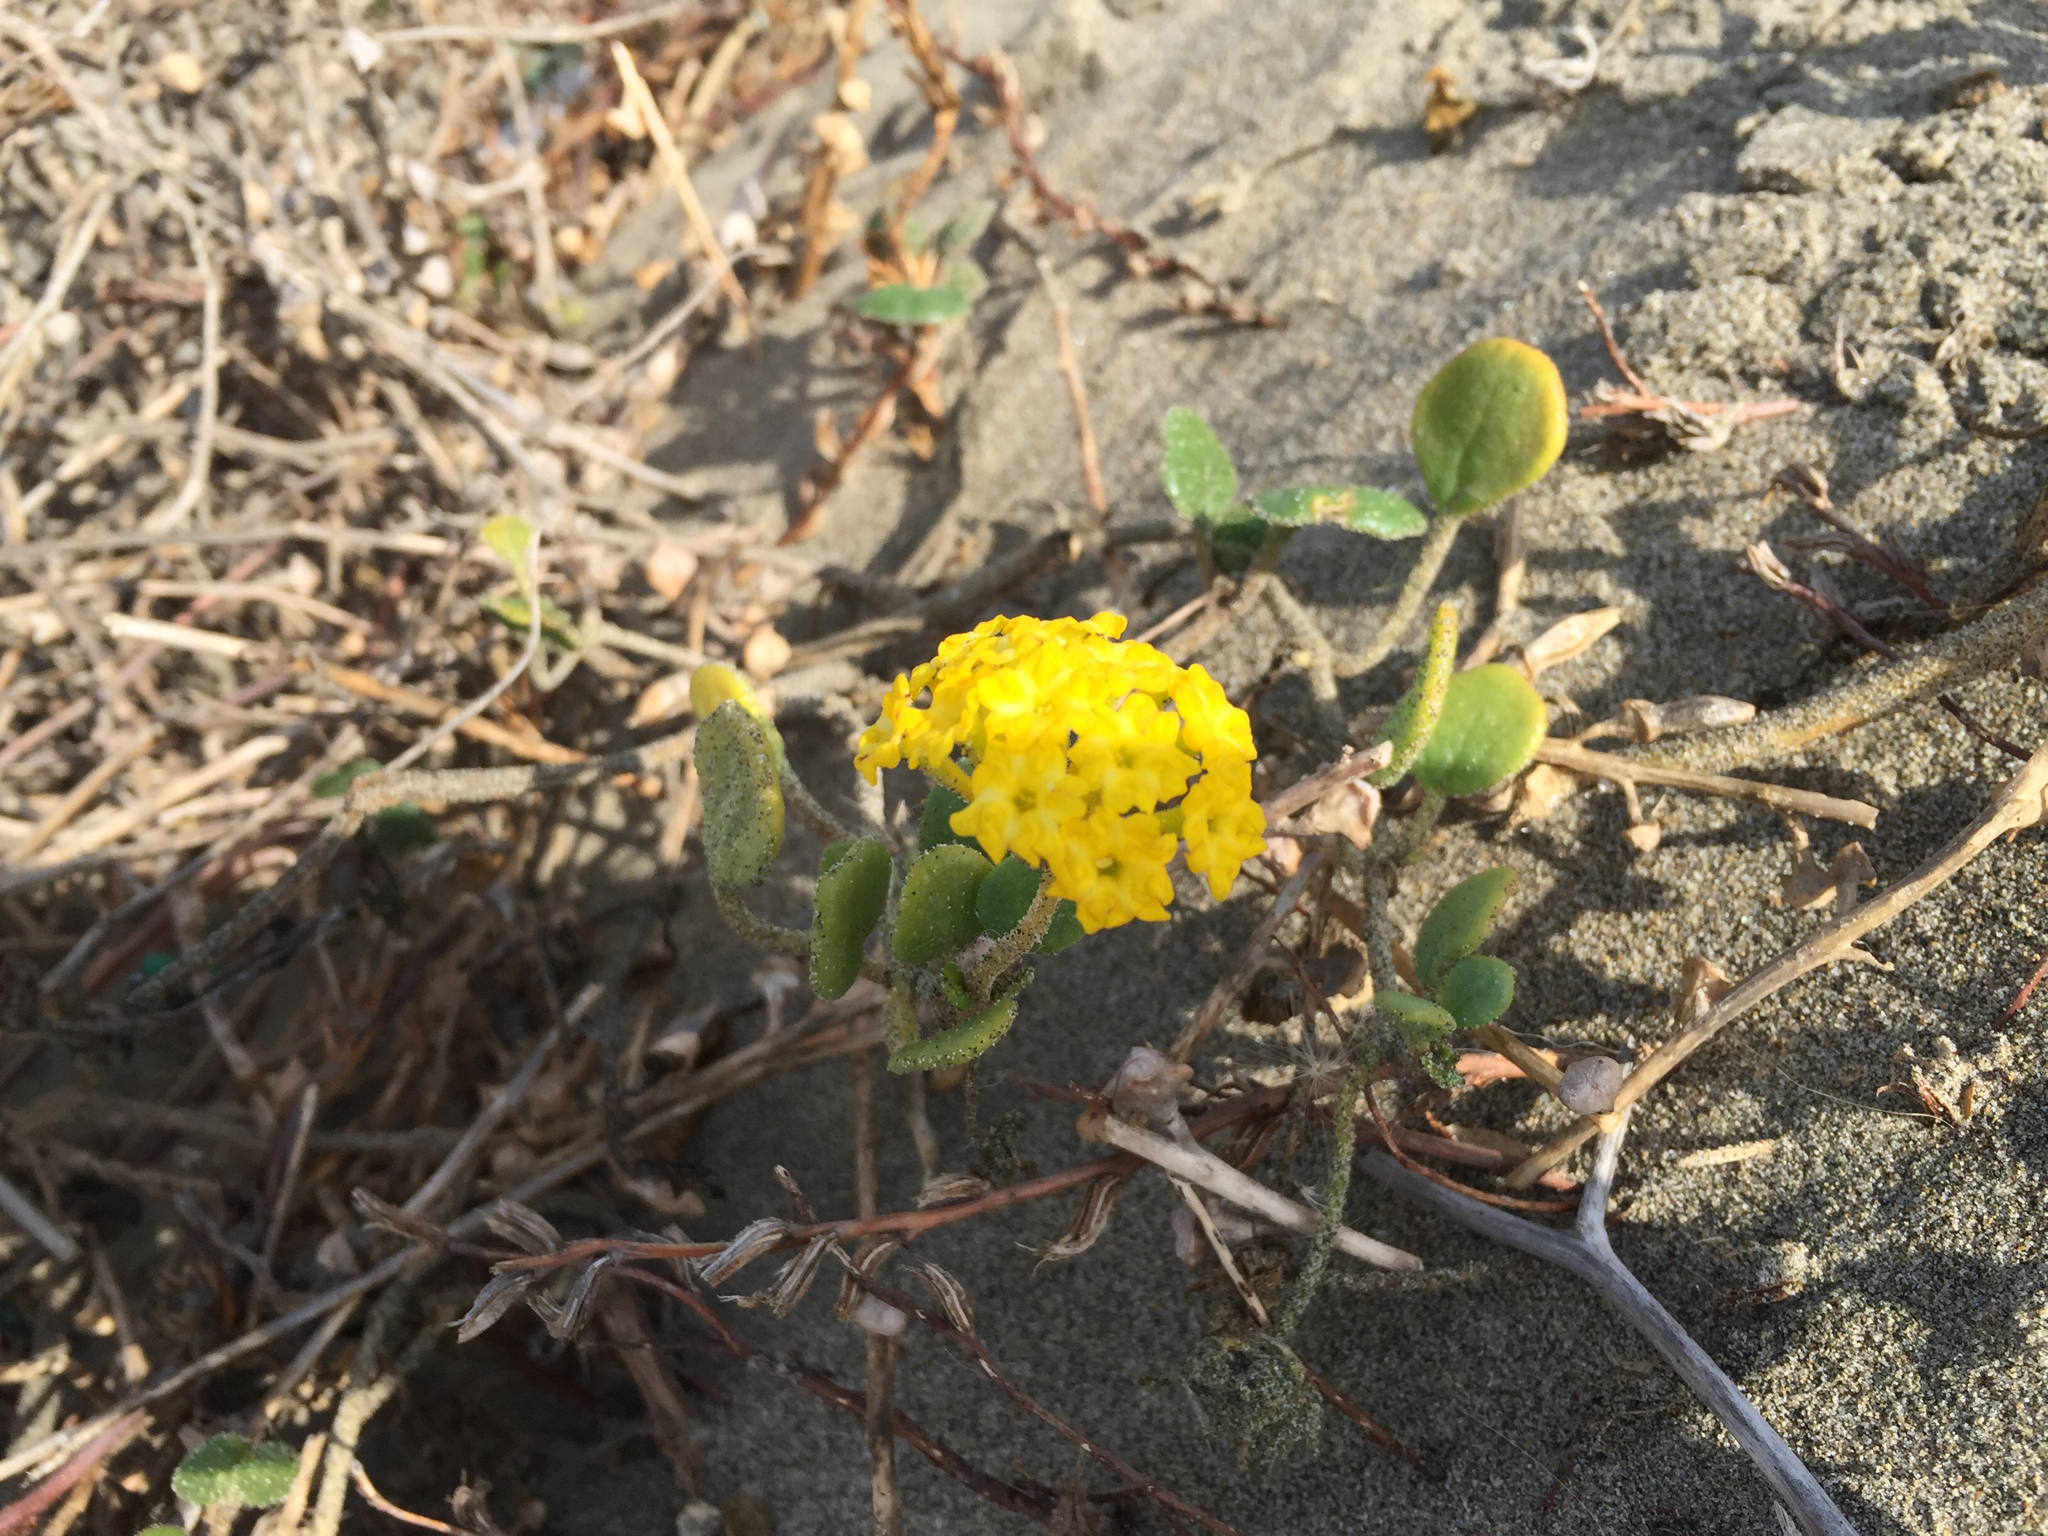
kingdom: Plantae
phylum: Tracheophyta
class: Magnoliopsida
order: Caryophyllales
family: Nyctaginaceae
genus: Abronia
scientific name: Abronia latifolia
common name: Yellow sand-verbena
